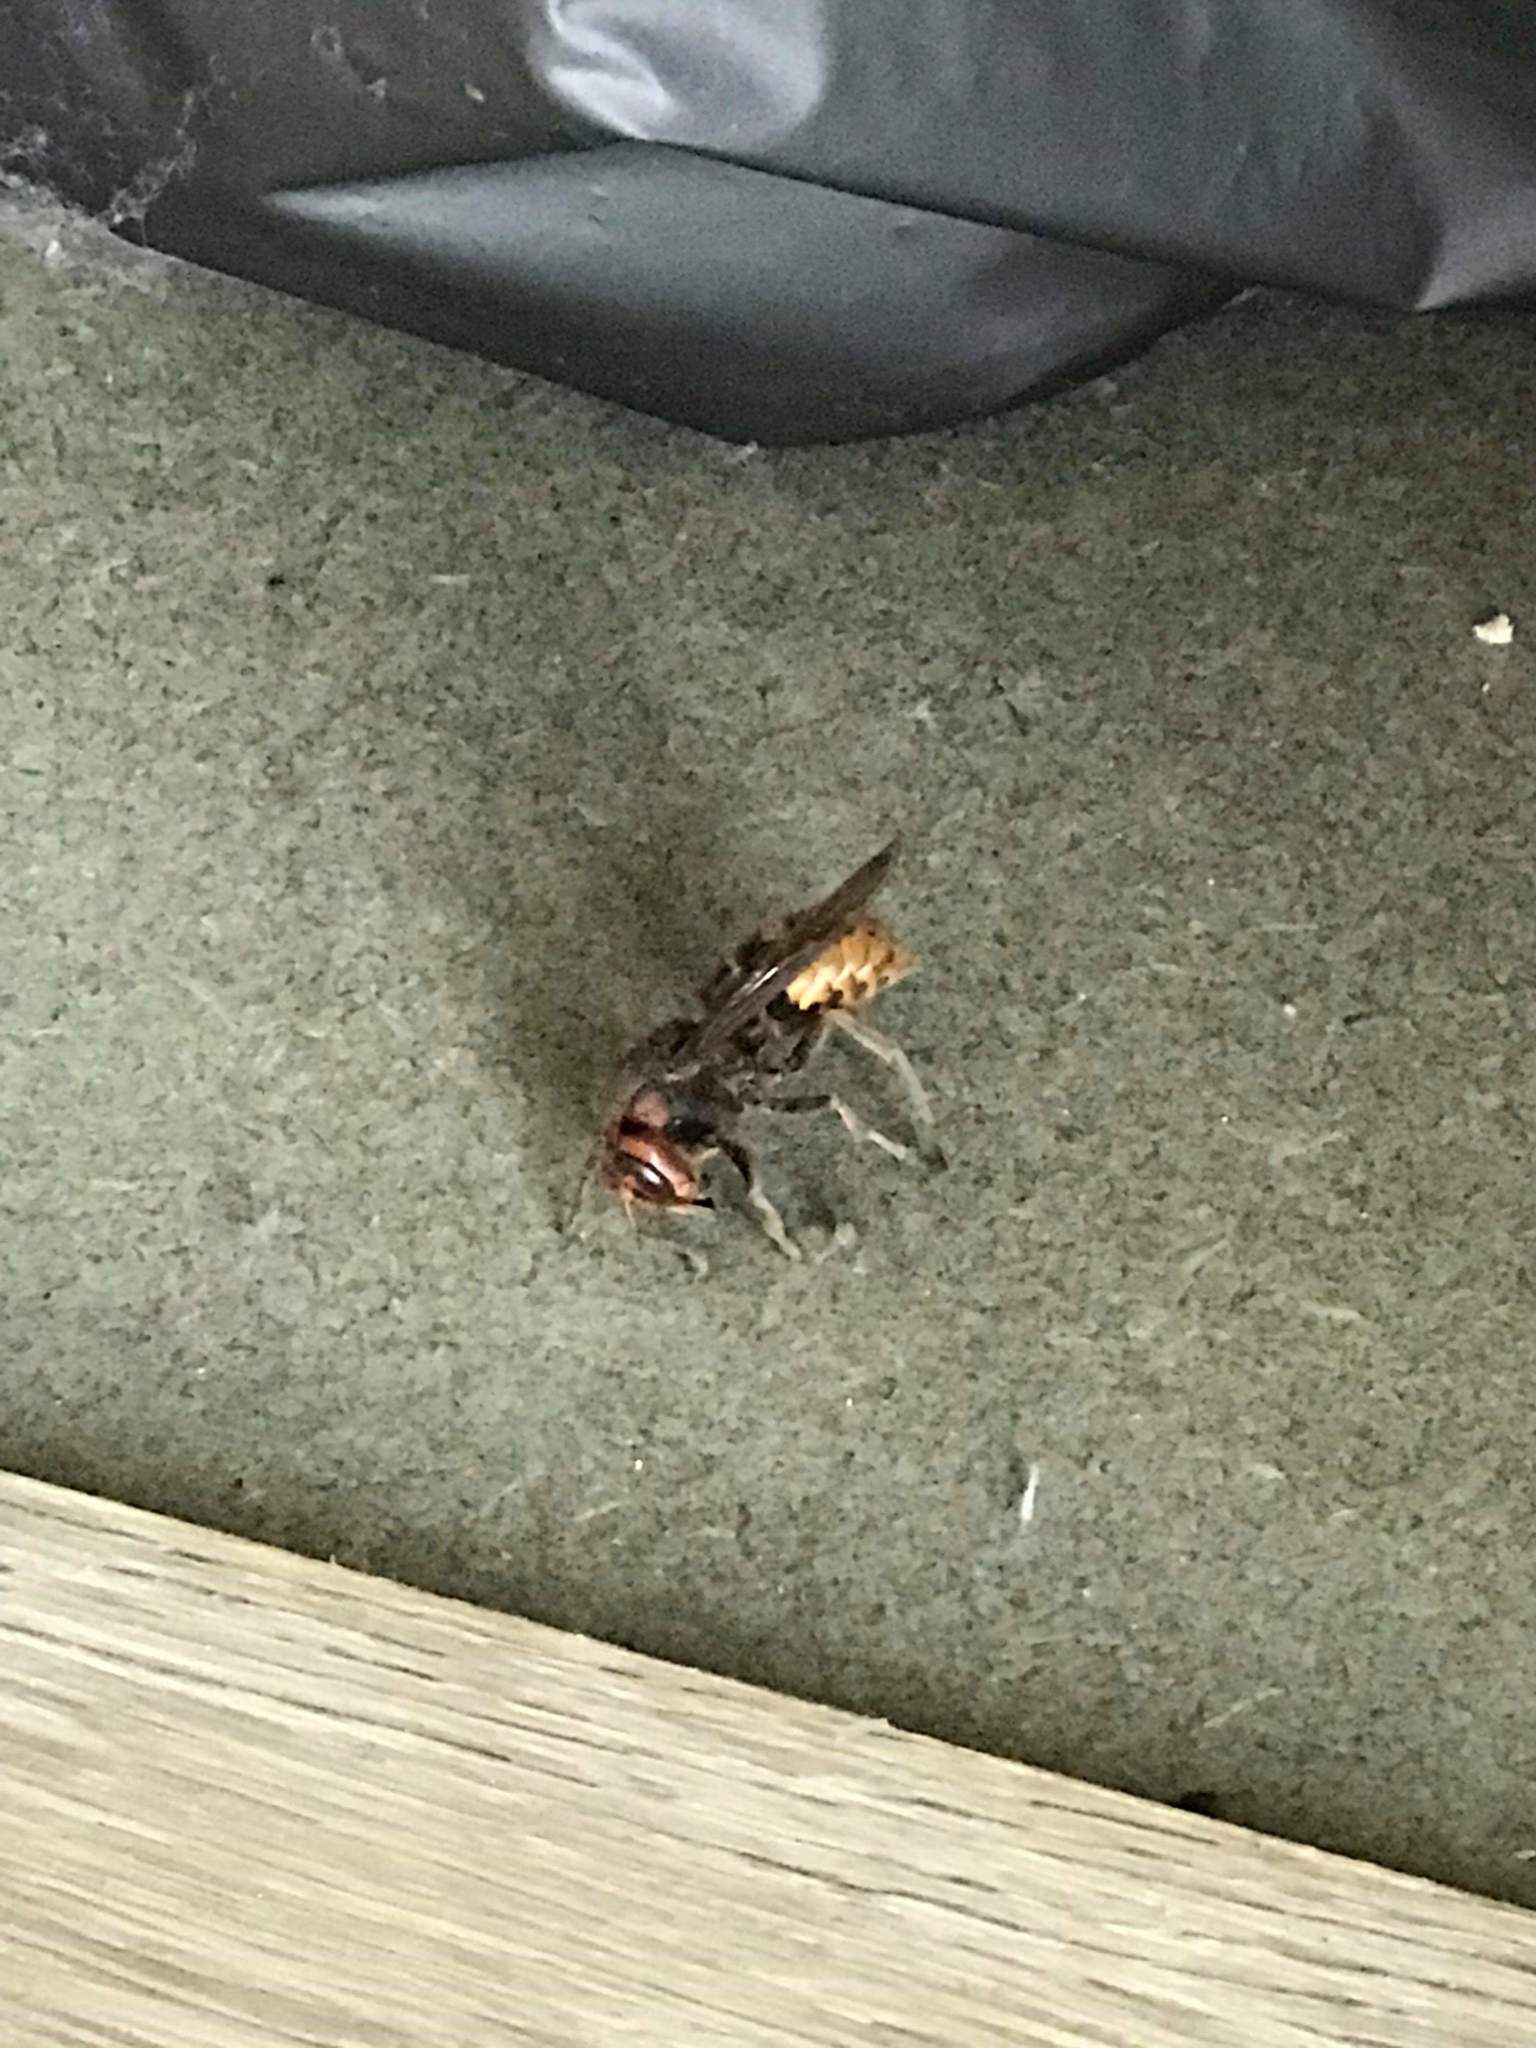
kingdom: Animalia
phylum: Arthropoda
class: Insecta
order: Hymenoptera
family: Vespidae
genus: Vespa
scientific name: Vespa crabro
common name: Hornet
